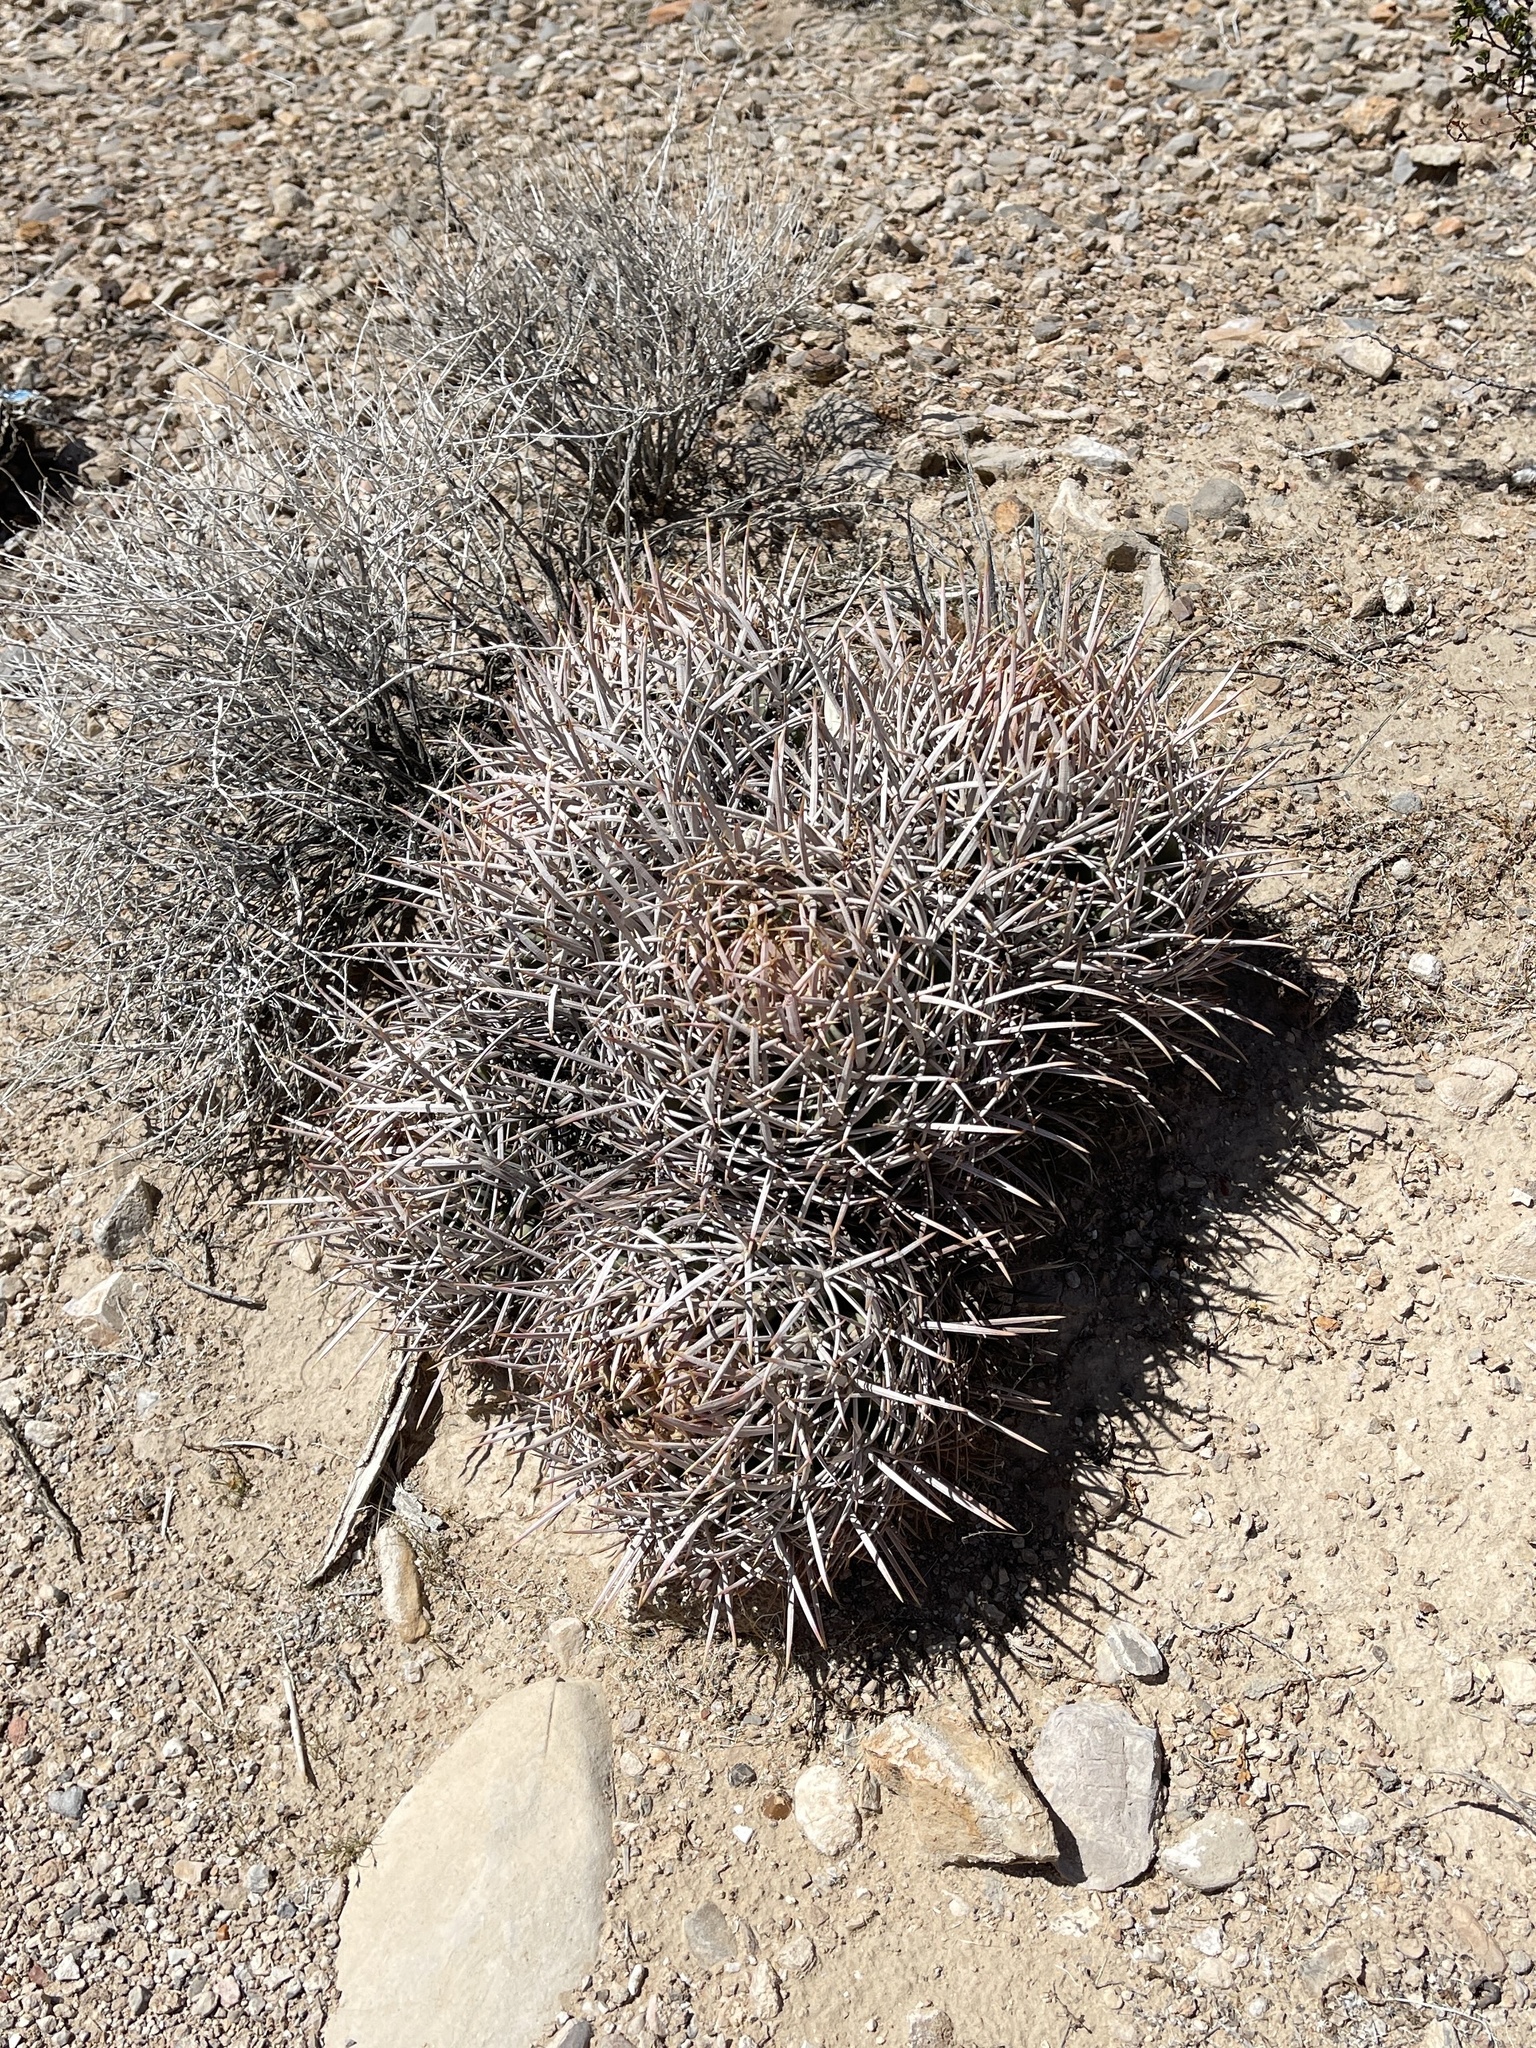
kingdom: Plantae
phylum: Tracheophyta
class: Magnoliopsida
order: Caryophyllales
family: Cactaceae
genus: Echinocactus
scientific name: Echinocactus polycephalus
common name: Cottontop cactus
